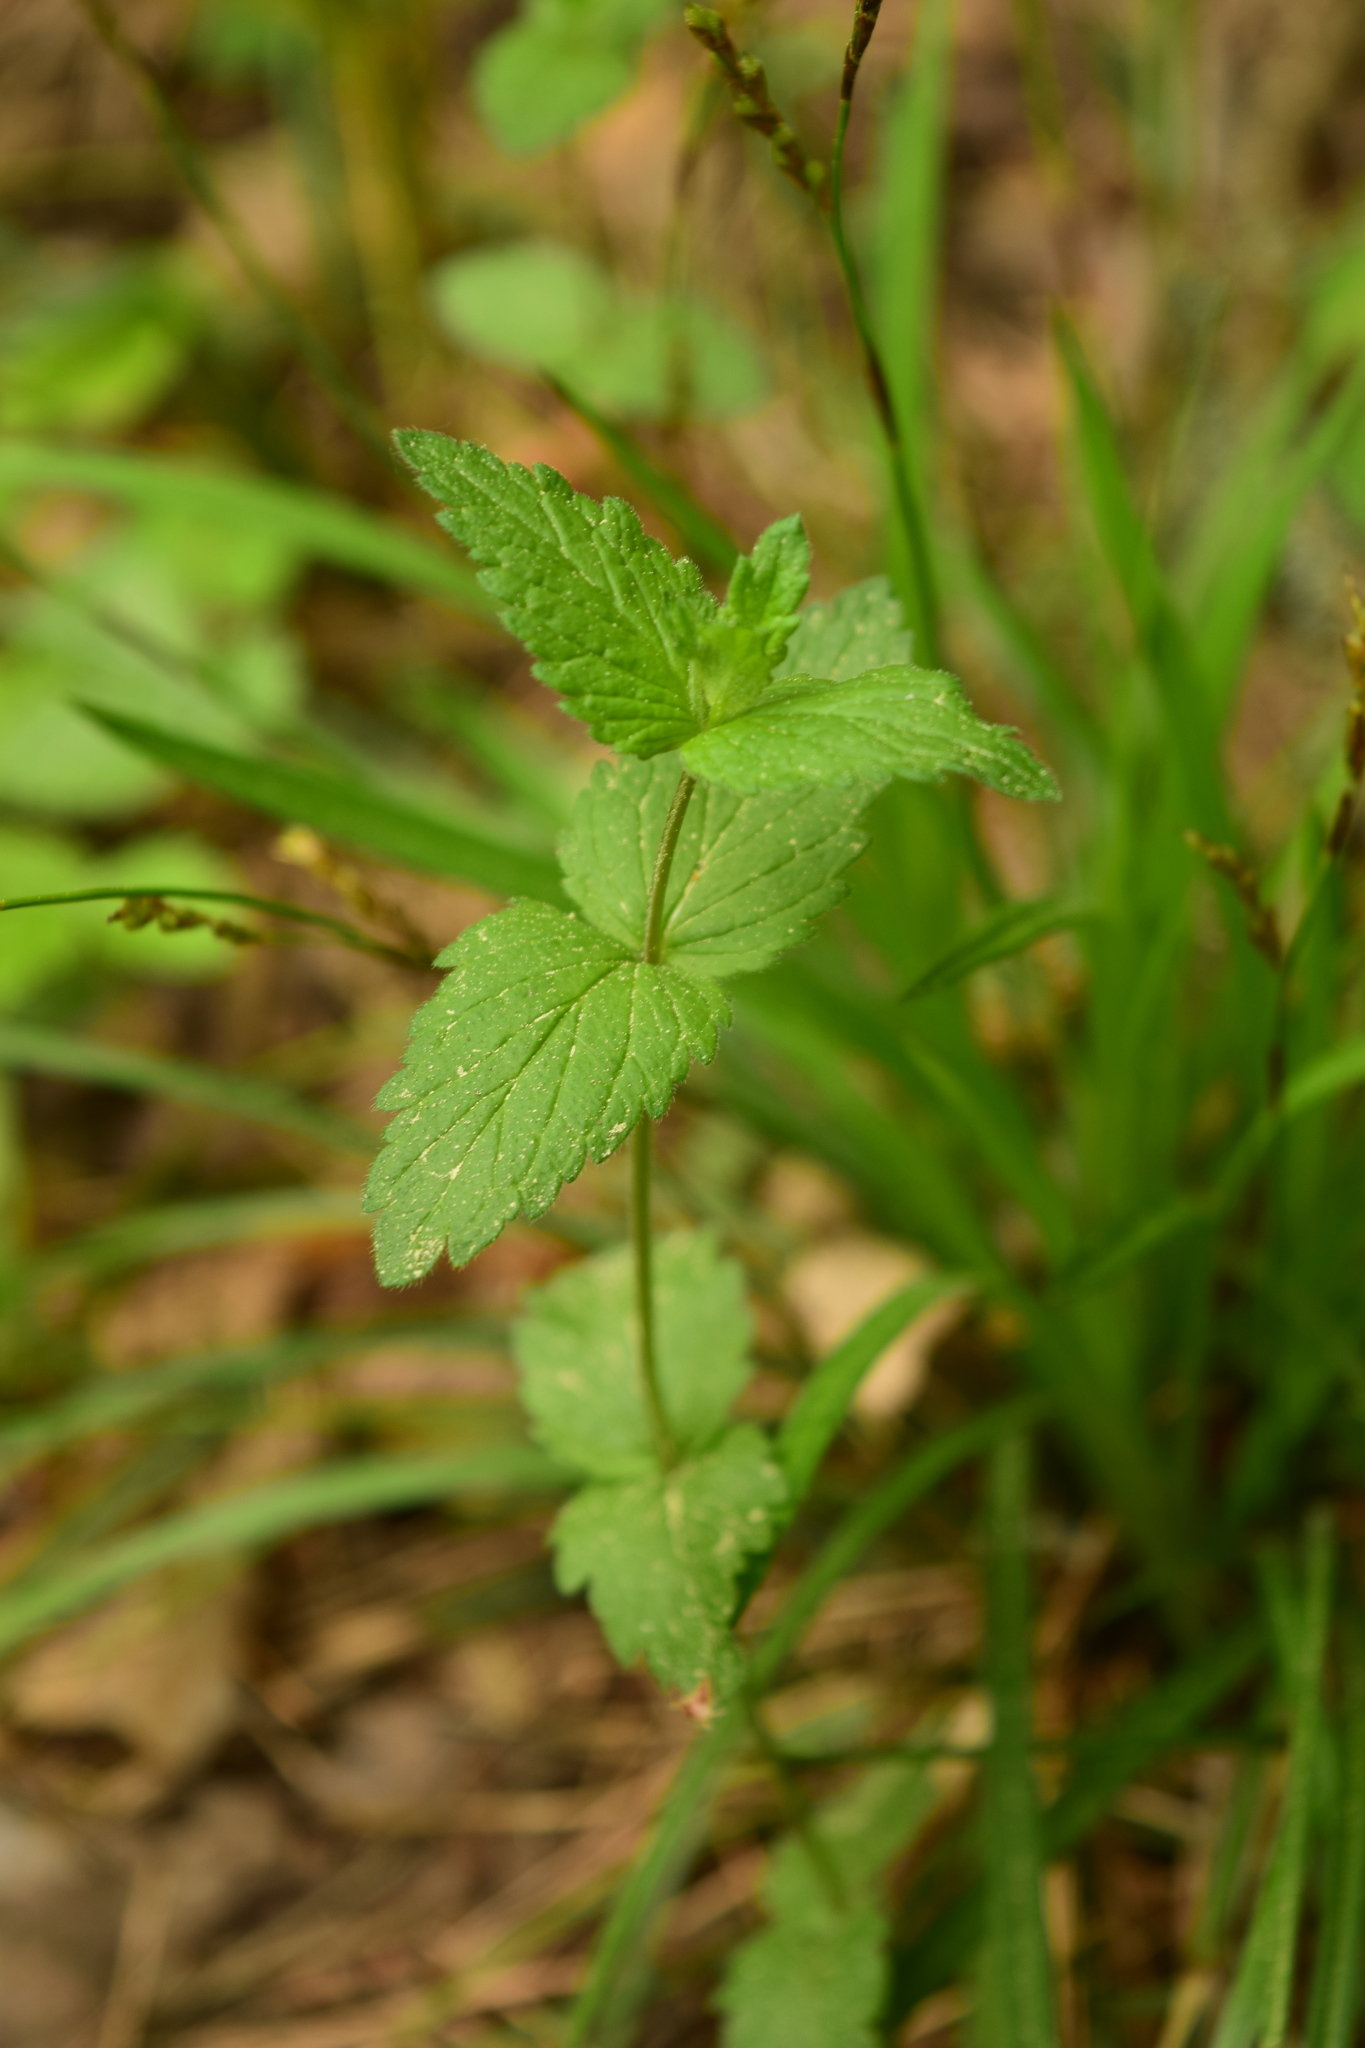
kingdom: Plantae
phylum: Tracheophyta
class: Magnoliopsida
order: Lamiales
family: Plantaginaceae
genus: Veronica
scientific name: Veronica chamaedrys
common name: Germander speedwell
